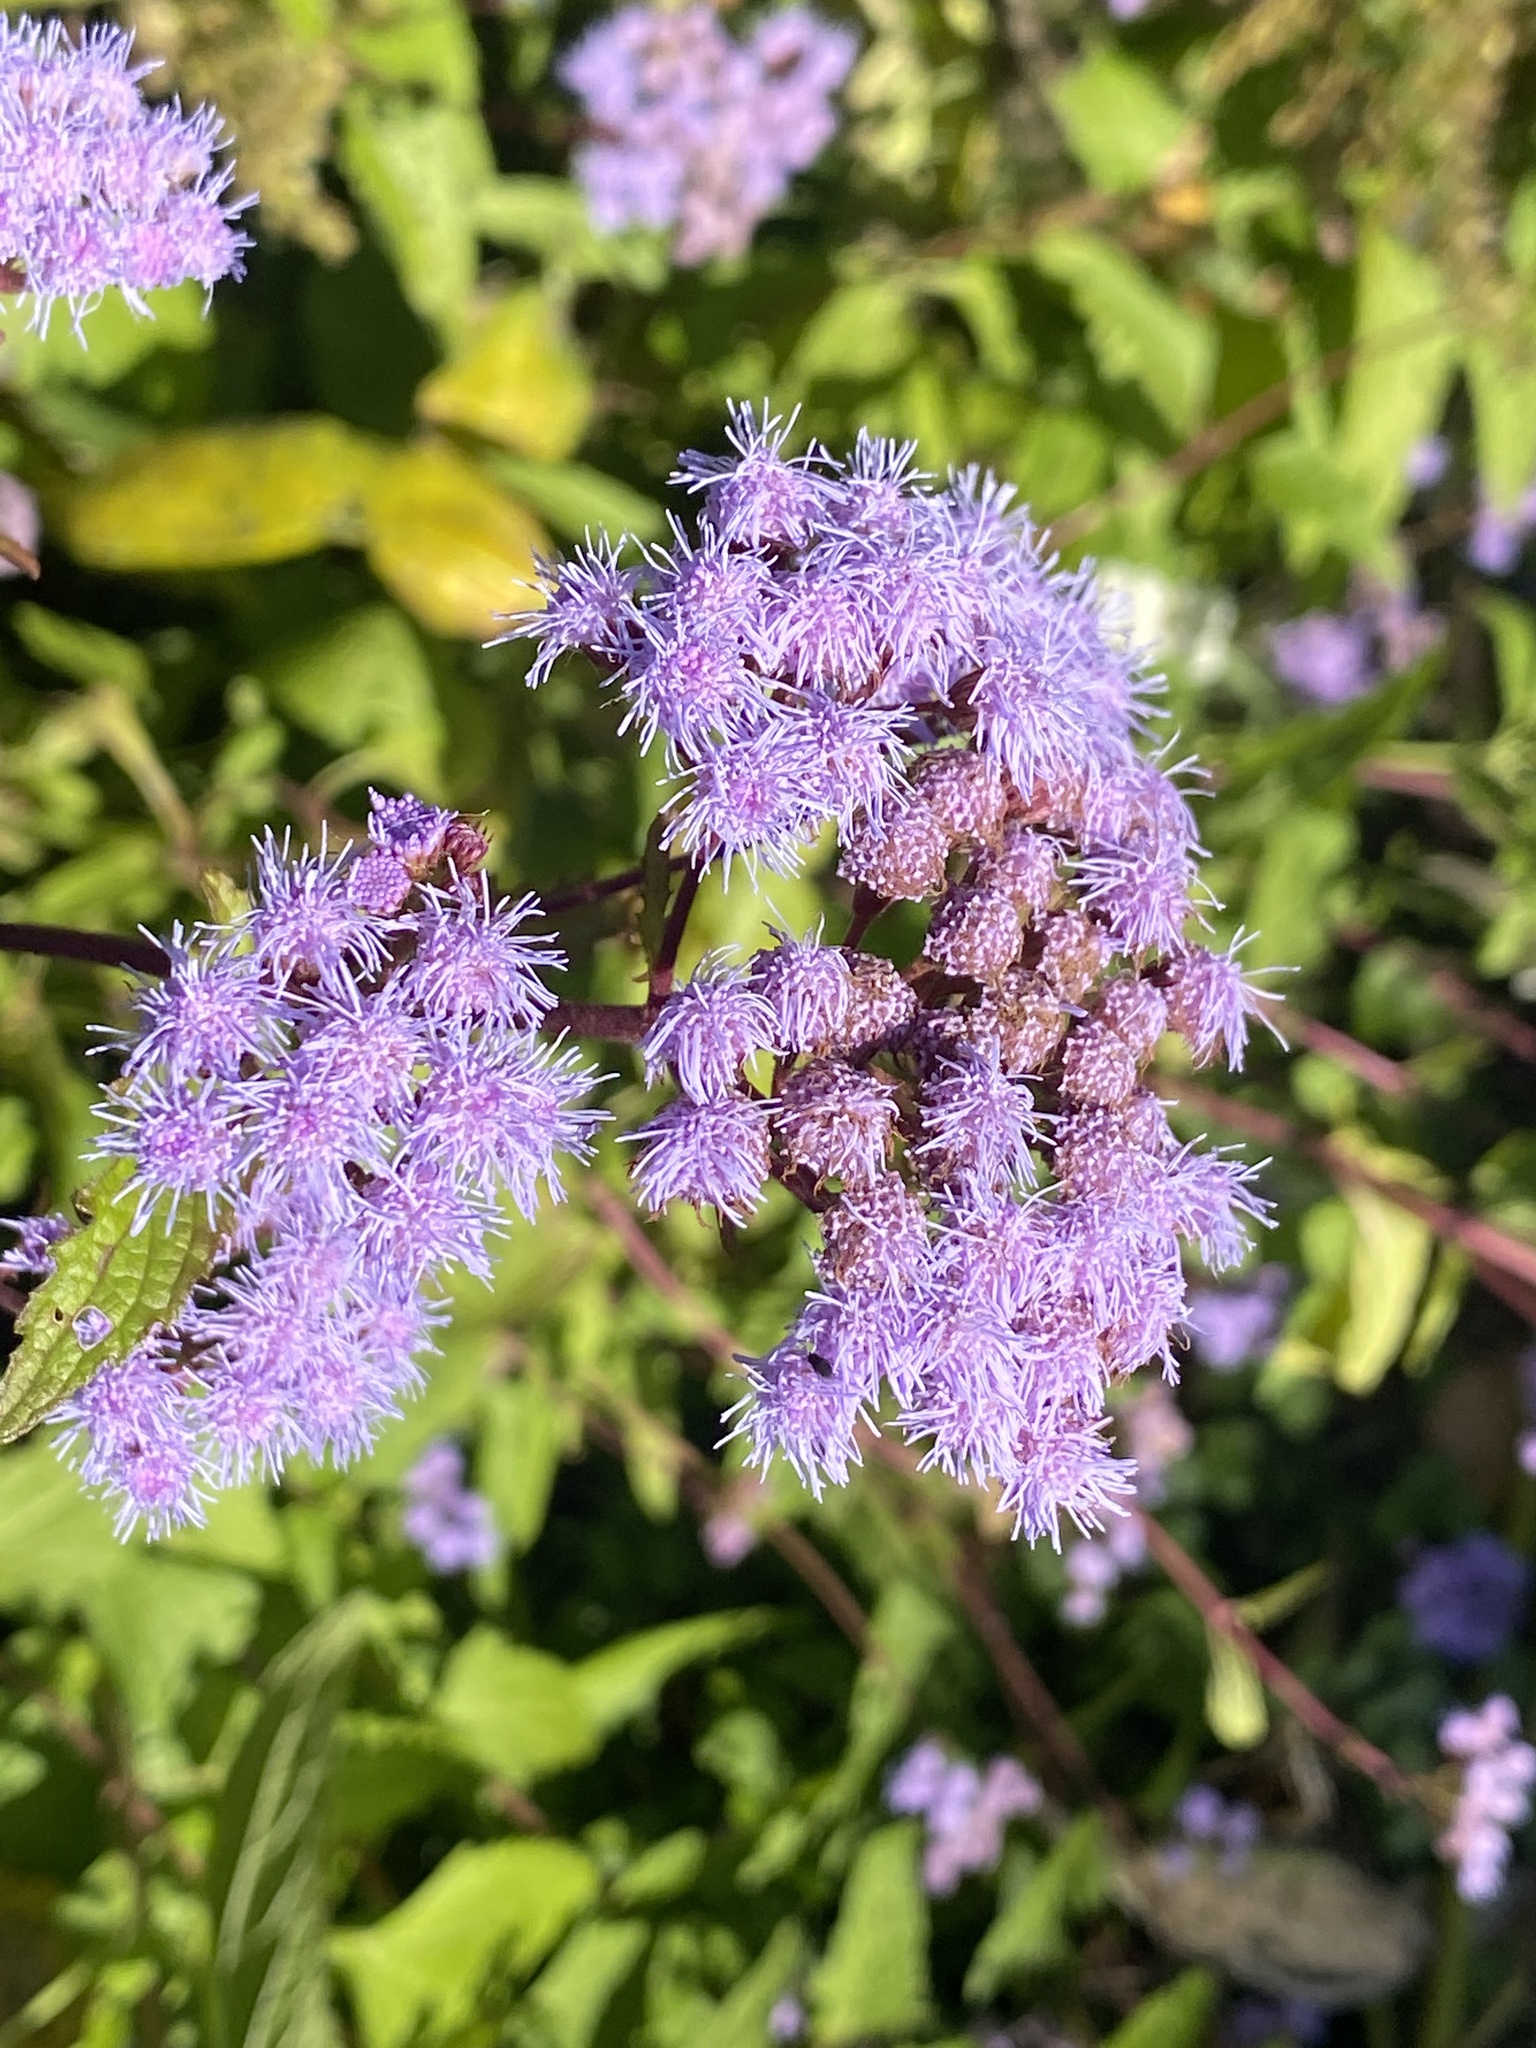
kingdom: Plantae
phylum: Tracheophyta
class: Magnoliopsida
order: Asterales
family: Asteraceae
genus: Conoclinium
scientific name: Conoclinium coelestinum
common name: Blue mistflower
